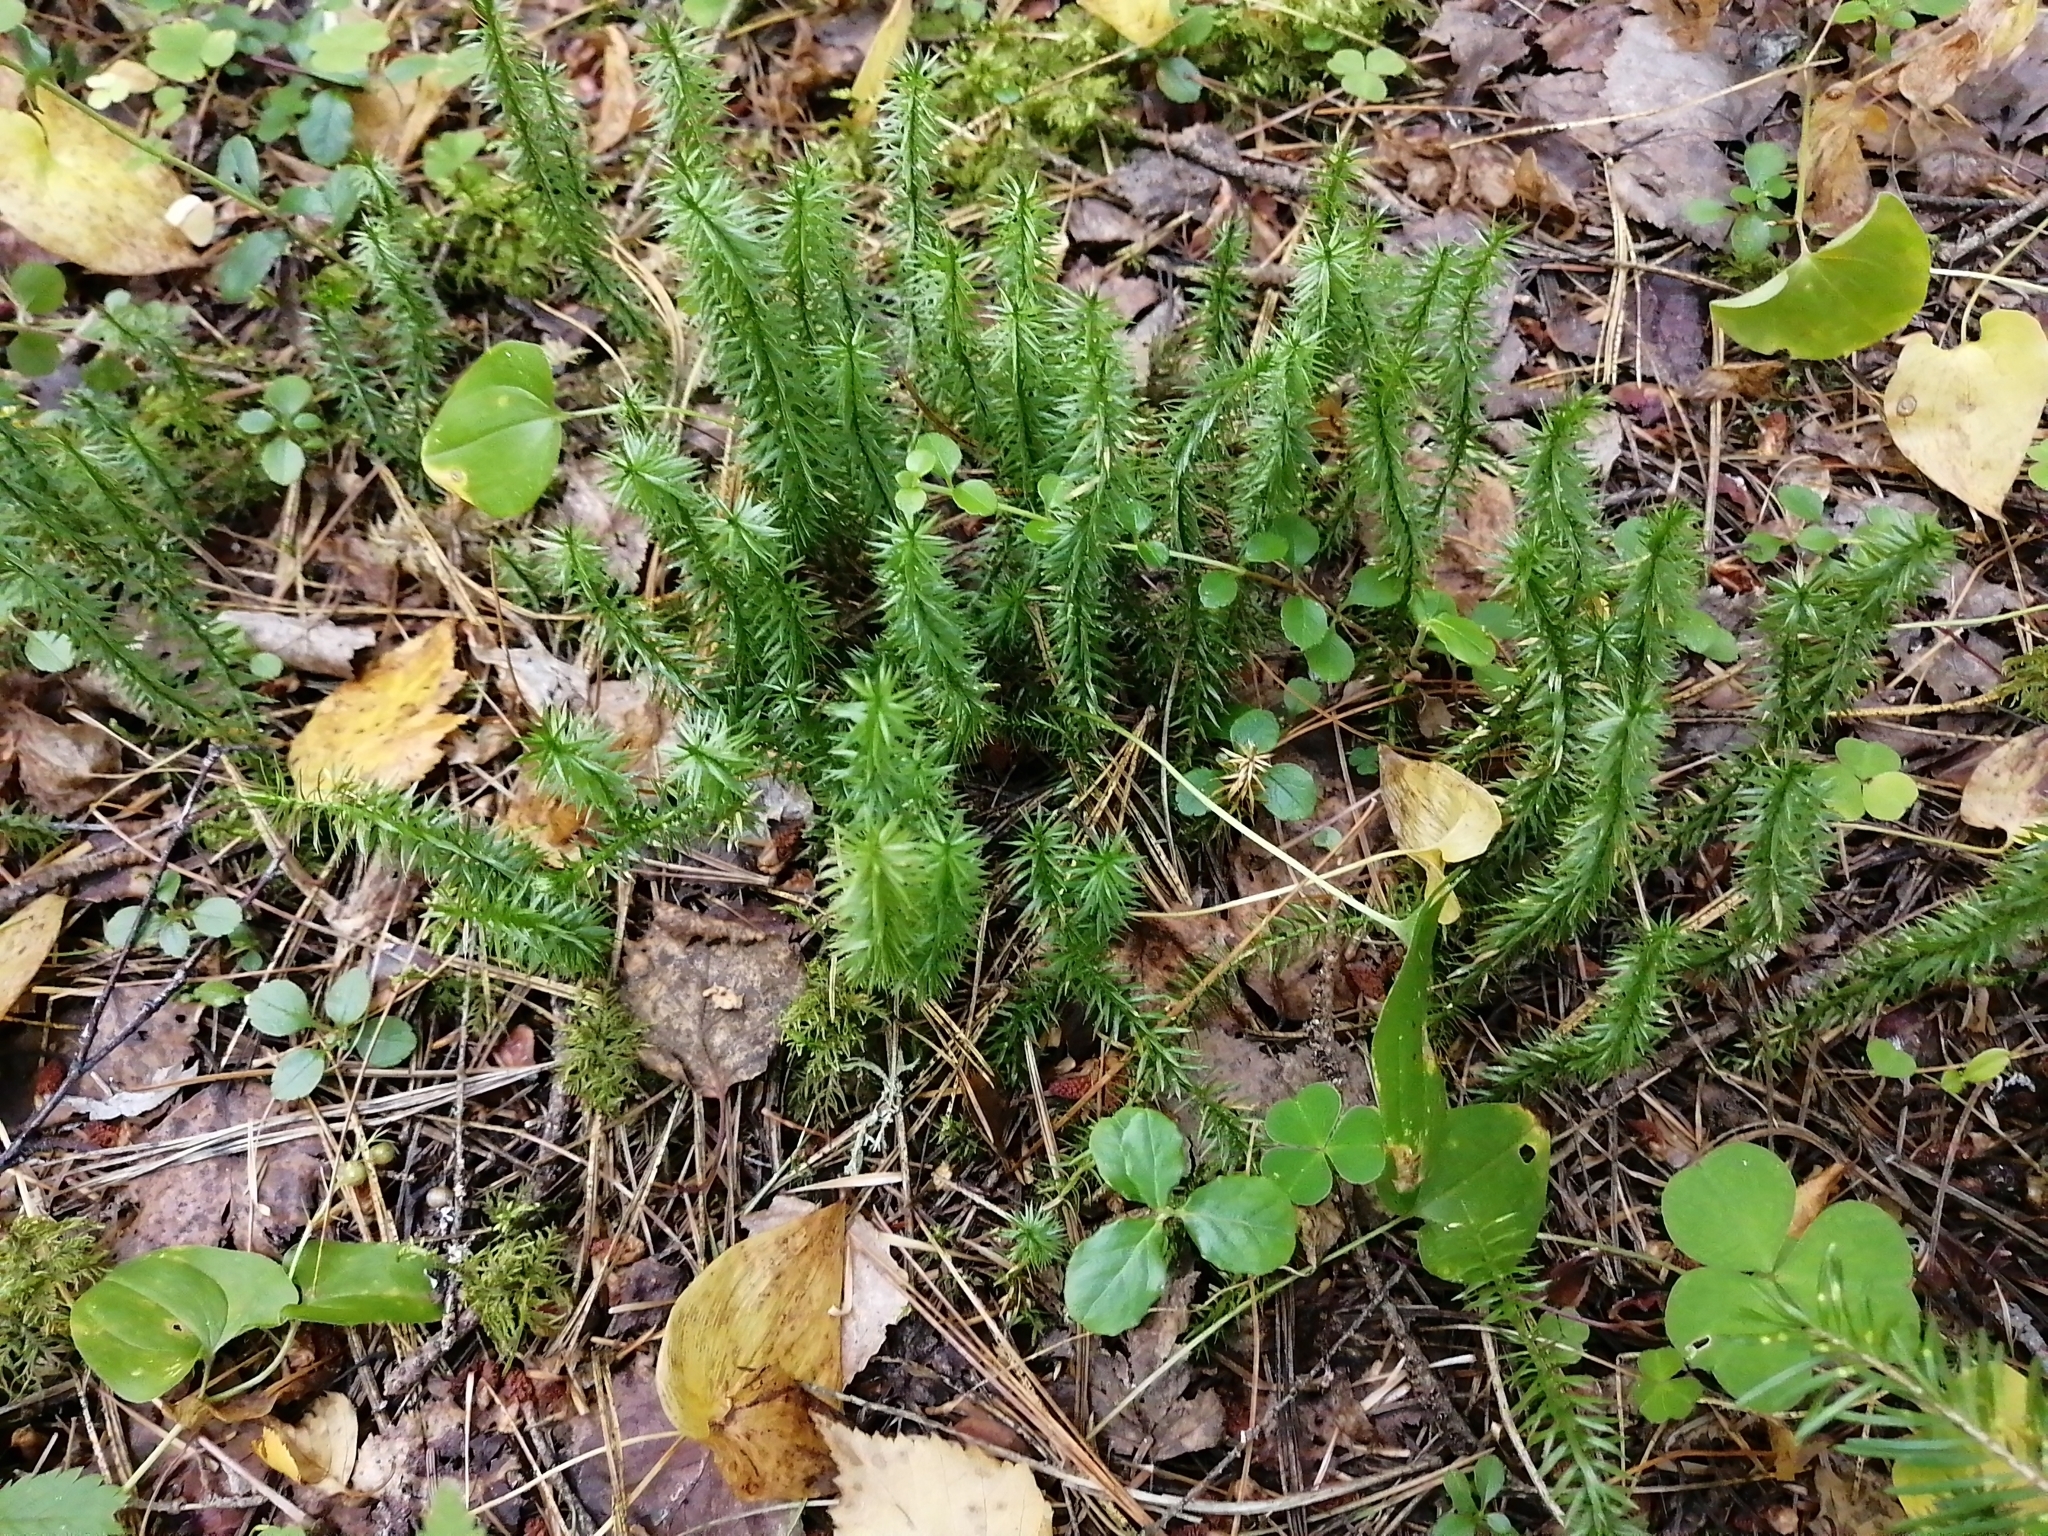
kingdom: Plantae
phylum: Tracheophyta
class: Lycopodiopsida
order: Lycopodiales
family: Lycopodiaceae
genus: Spinulum
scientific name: Spinulum annotinum
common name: Interrupted club-moss
